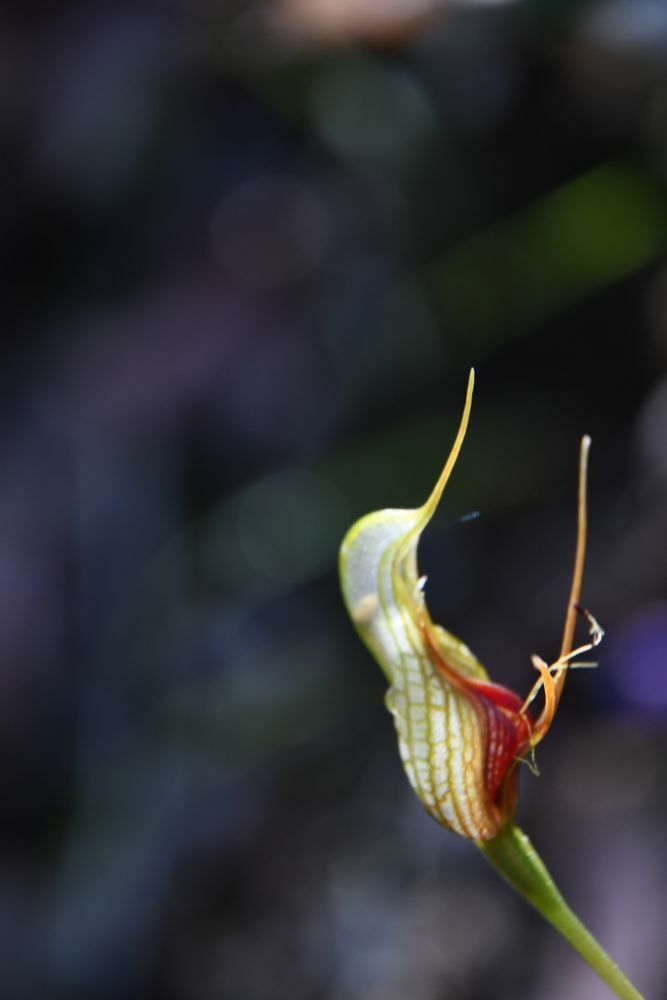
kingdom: Plantae
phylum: Tracheophyta
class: Liliopsida
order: Asparagales
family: Orchidaceae
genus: Pterostylis
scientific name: Pterostylis barbata
